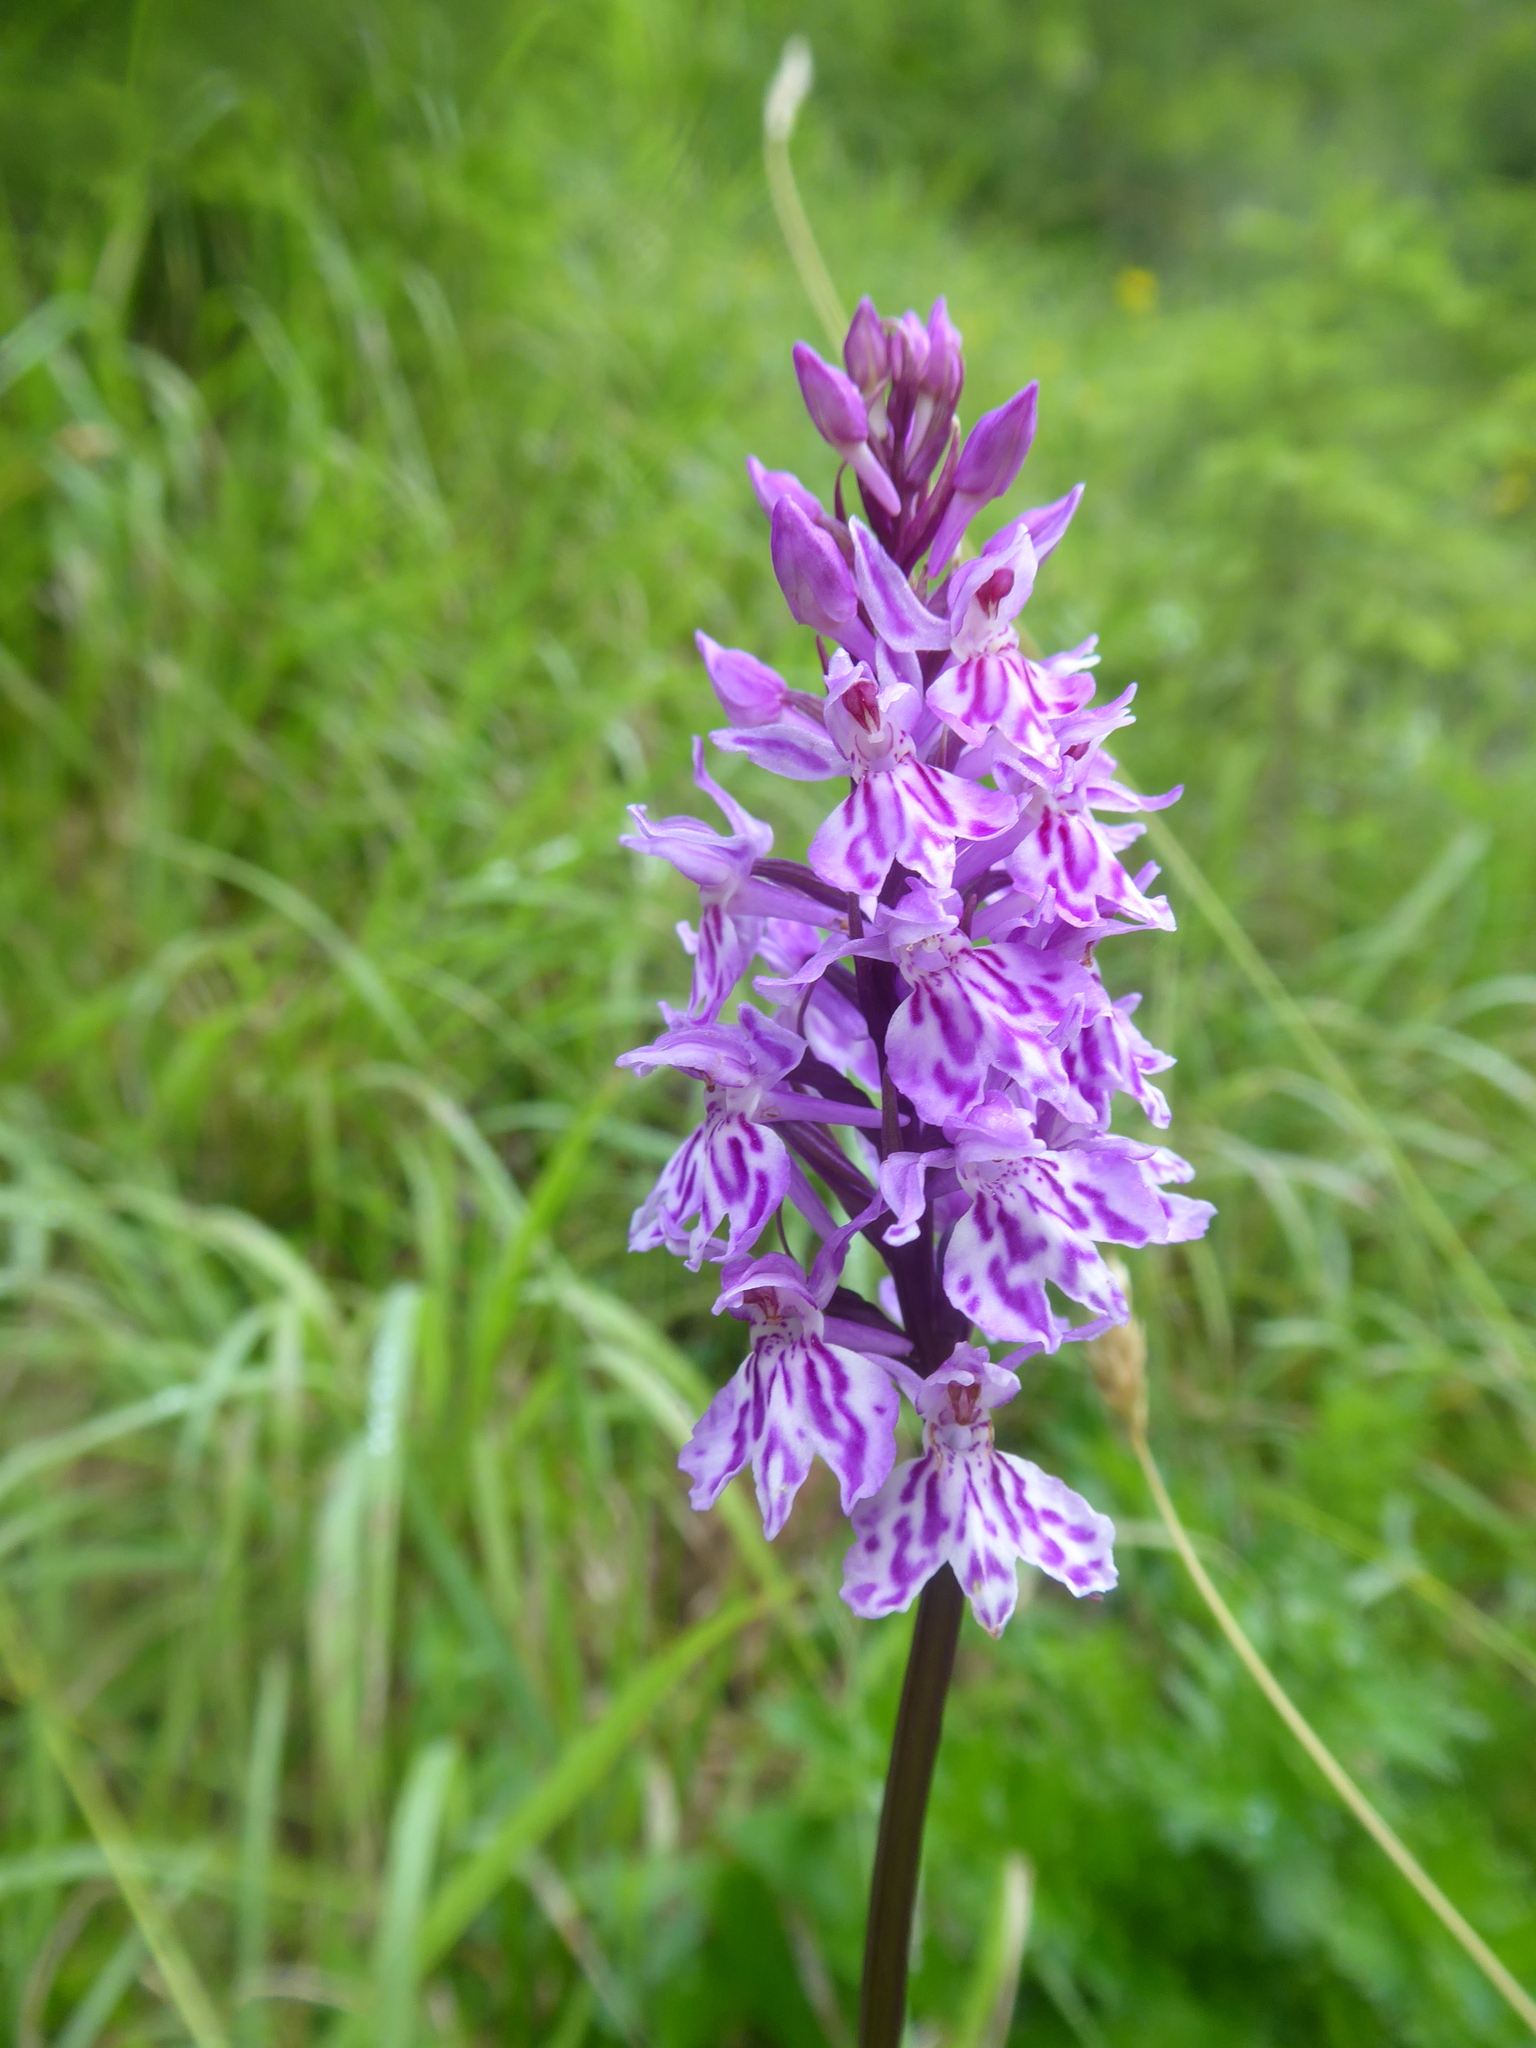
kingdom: Plantae
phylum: Tracheophyta
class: Liliopsida
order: Asparagales
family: Orchidaceae
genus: Dactylorhiza
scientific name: Dactylorhiza maculata
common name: Heath spotted-orchid
